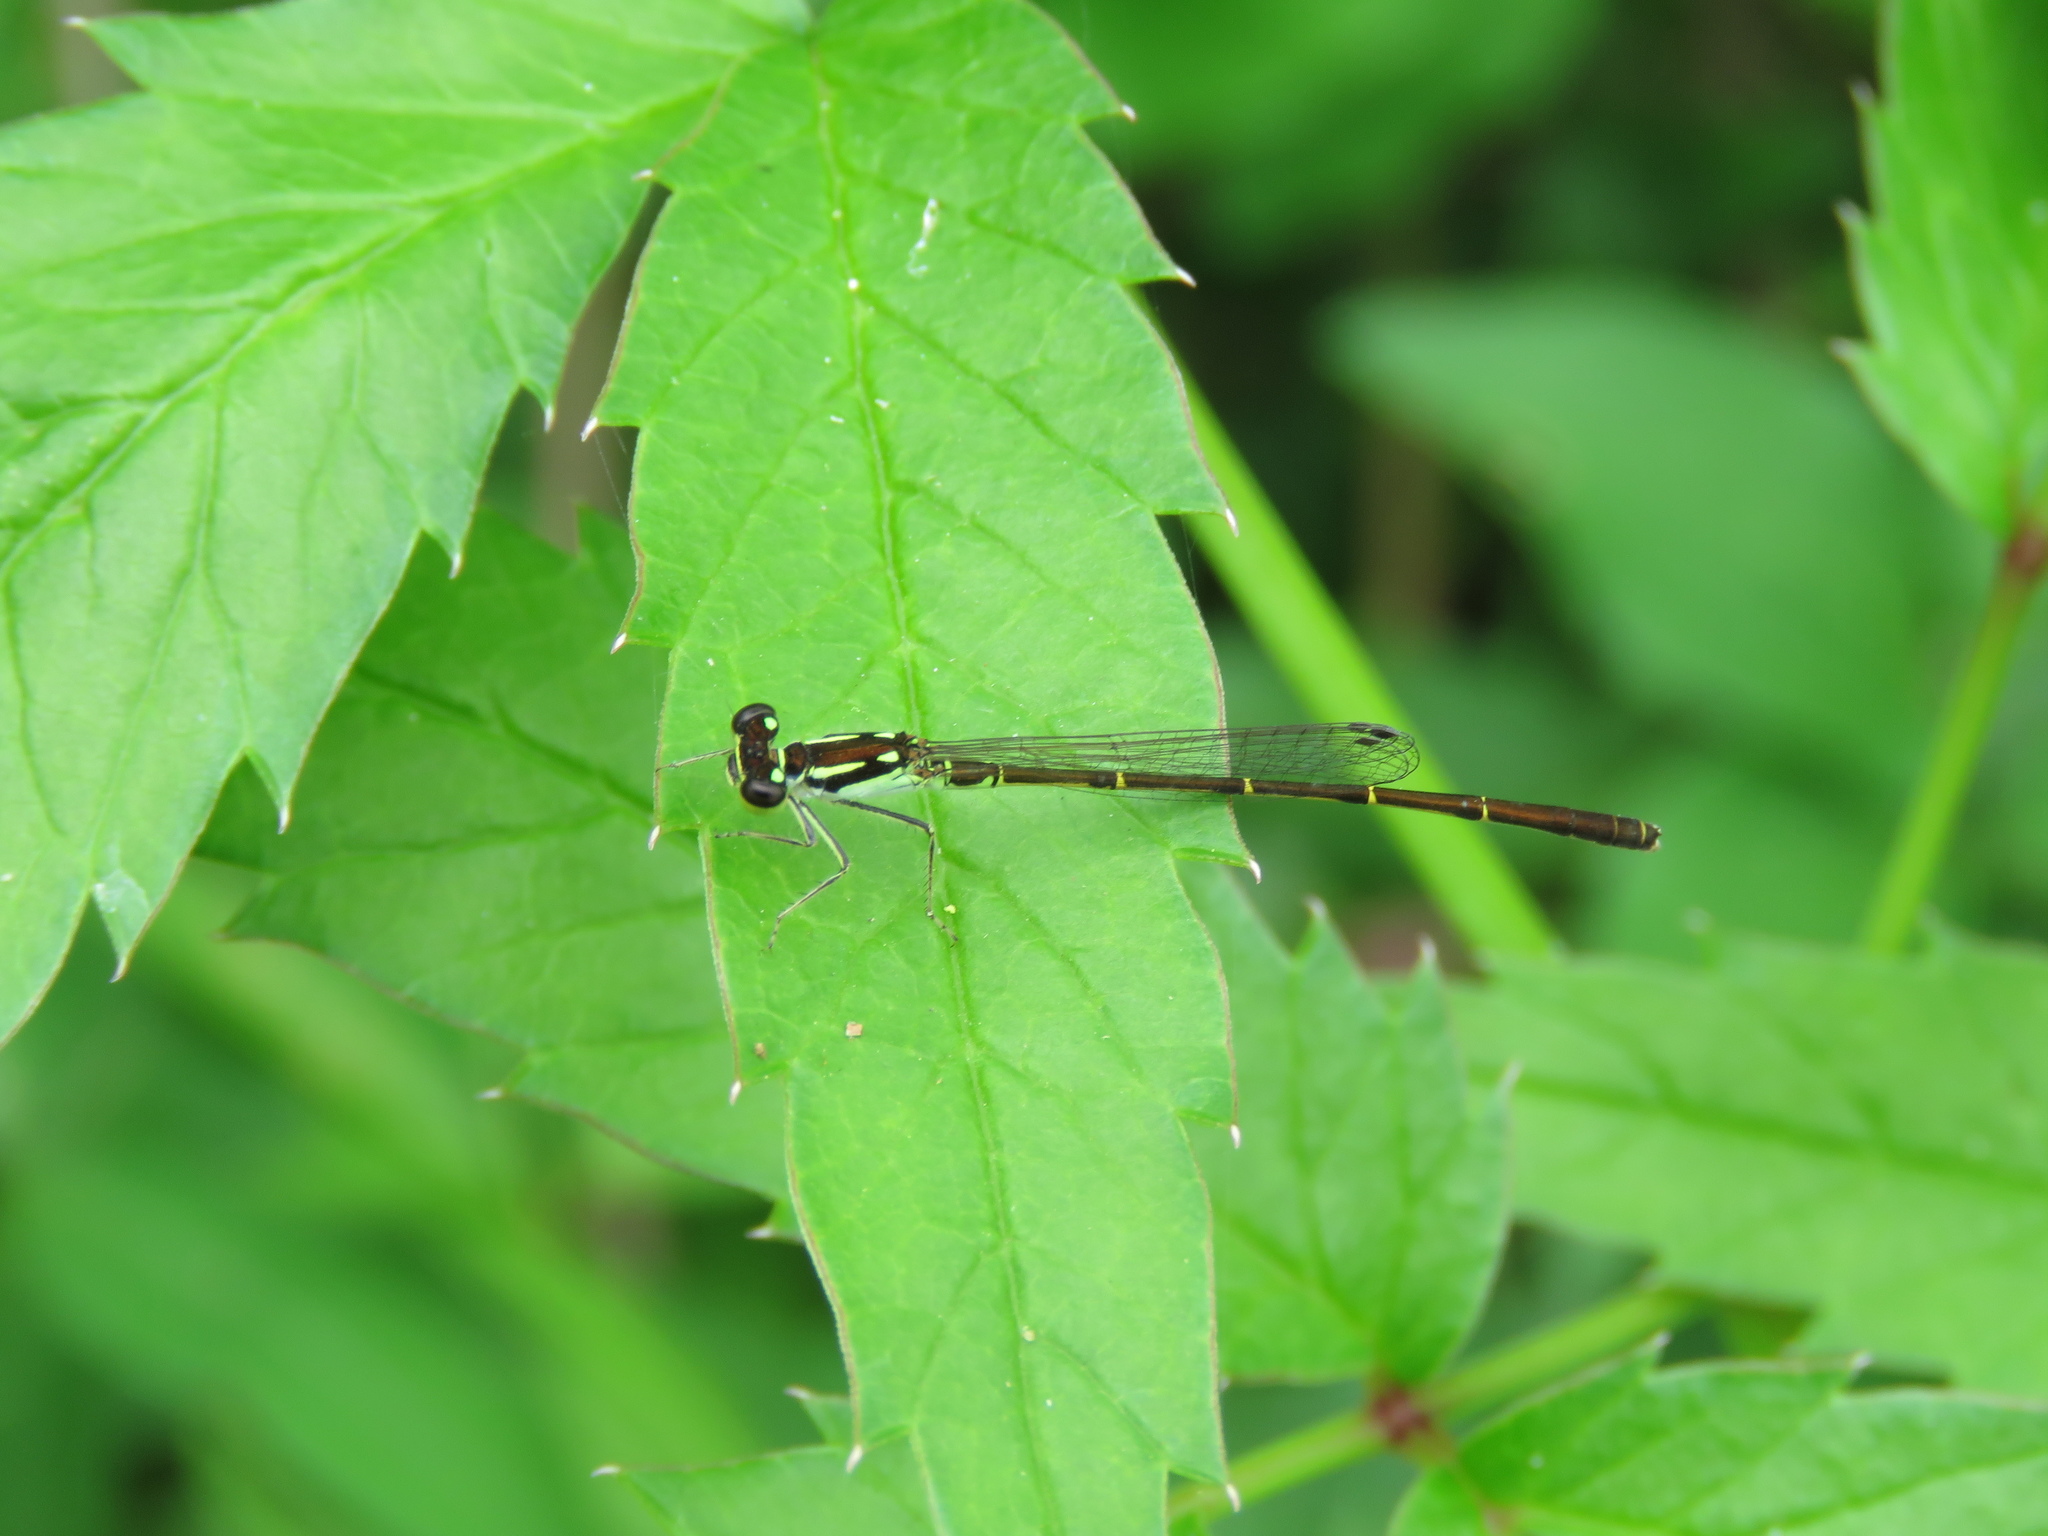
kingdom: Animalia
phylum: Arthropoda
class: Insecta
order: Odonata
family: Coenagrionidae
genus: Ischnura
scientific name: Ischnura posita
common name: Fragile forktail
